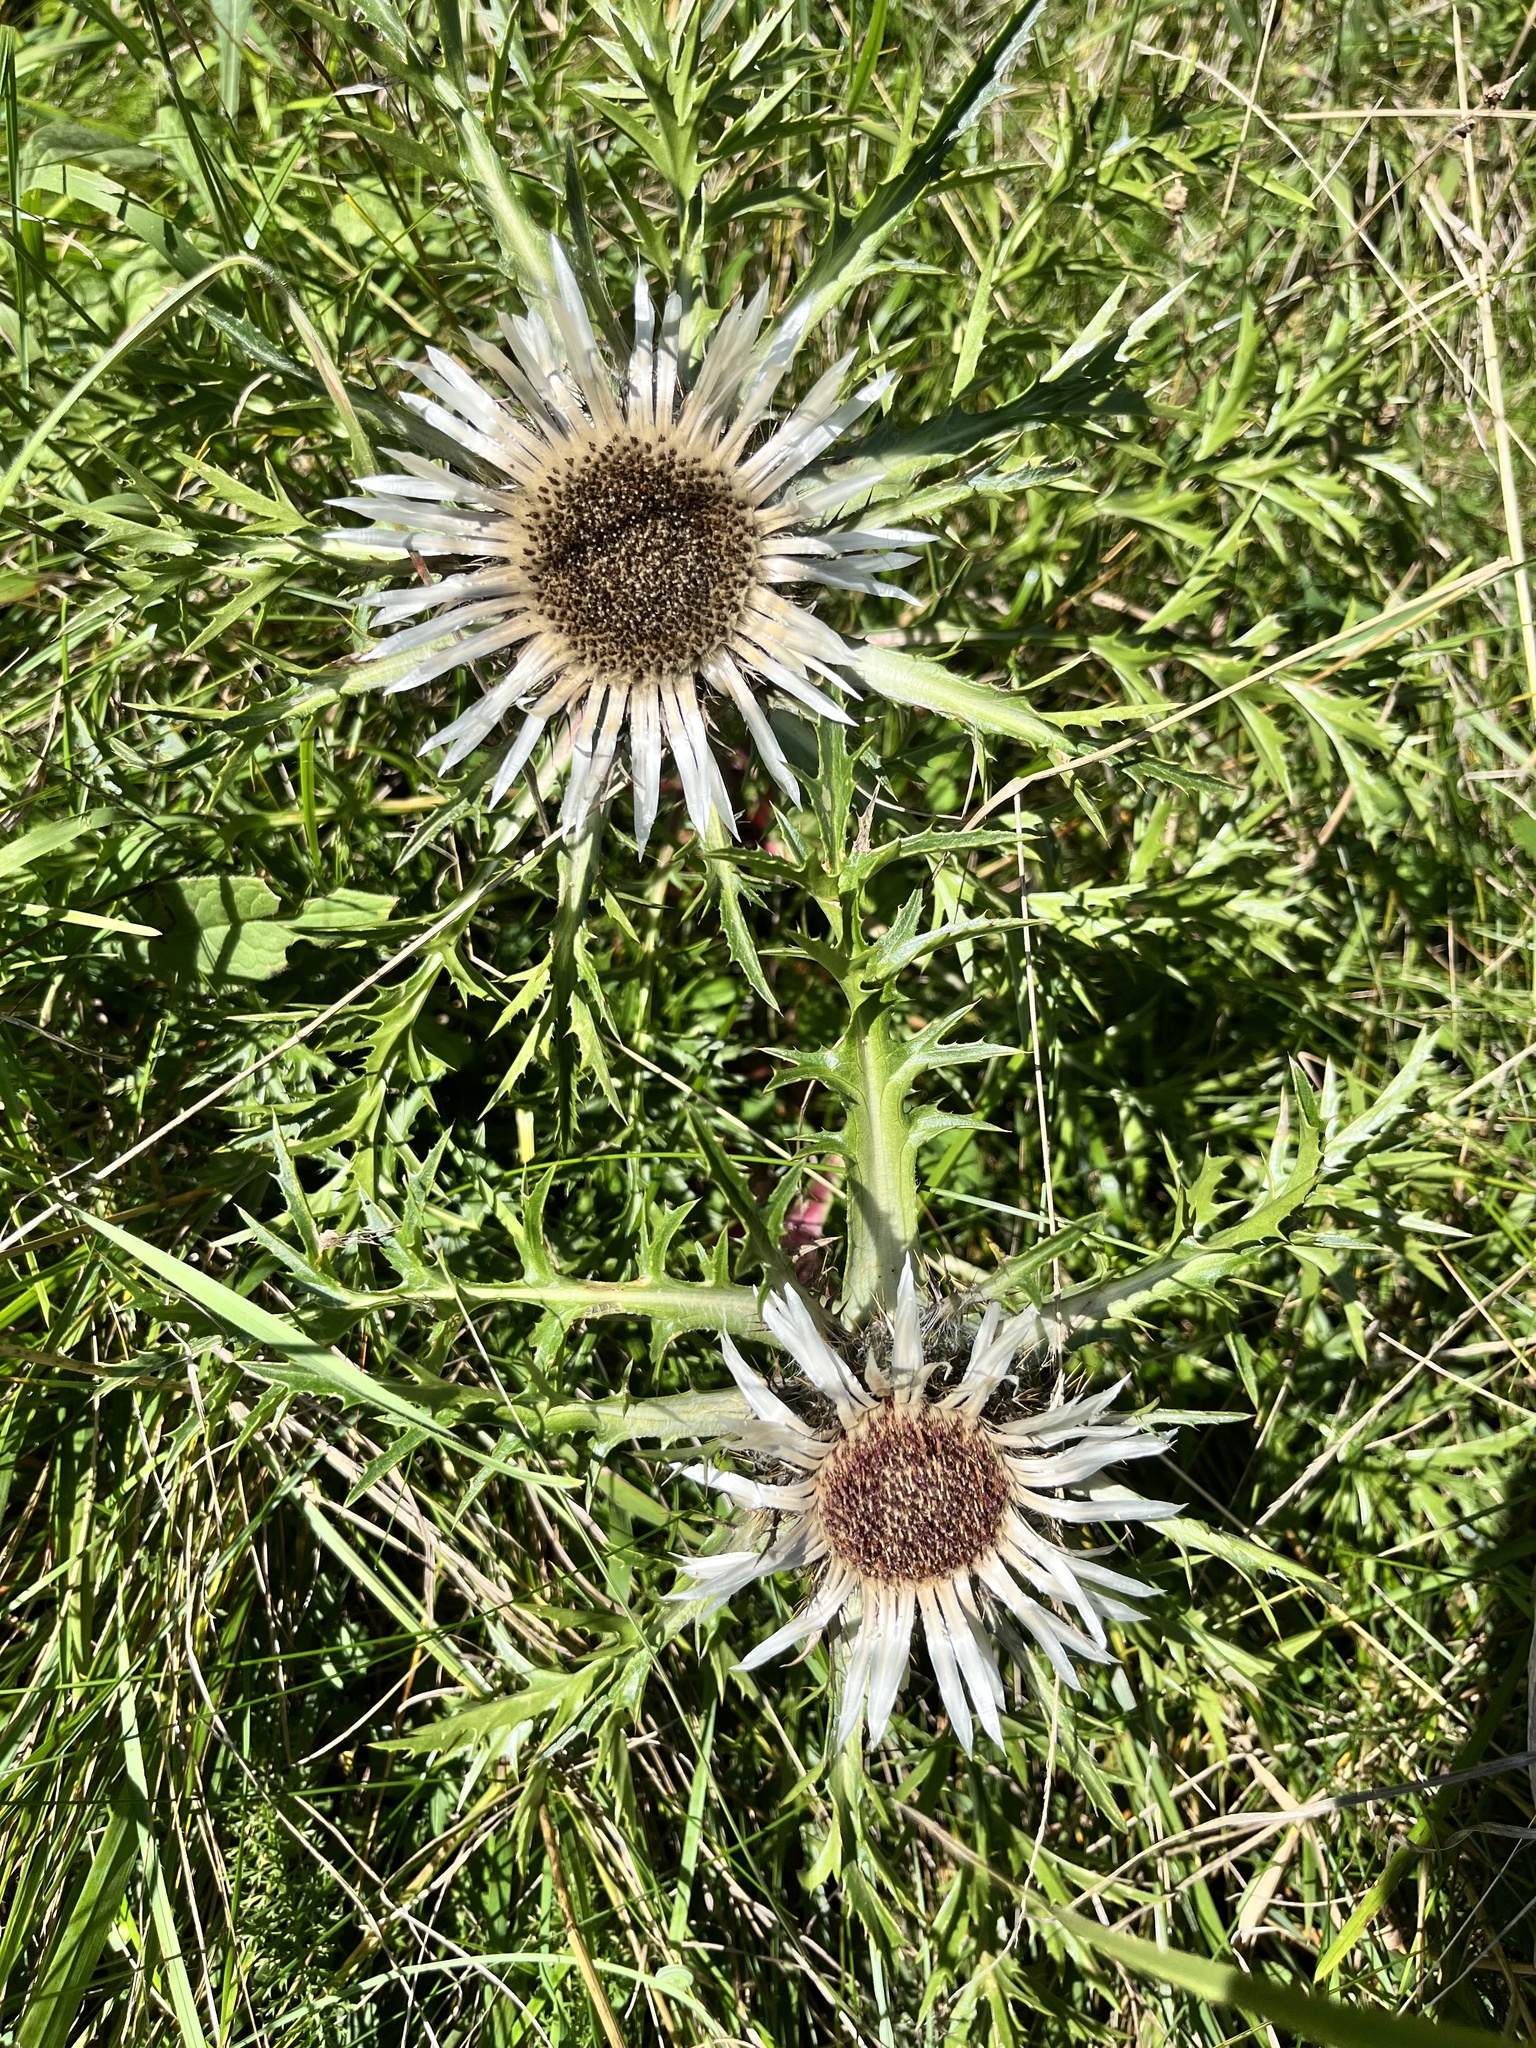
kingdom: Plantae
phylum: Tracheophyta
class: Magnoliopsida
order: Asterales
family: Asteraceae
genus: Carlina
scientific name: Carlina acaulis
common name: Stemless carline thistle
